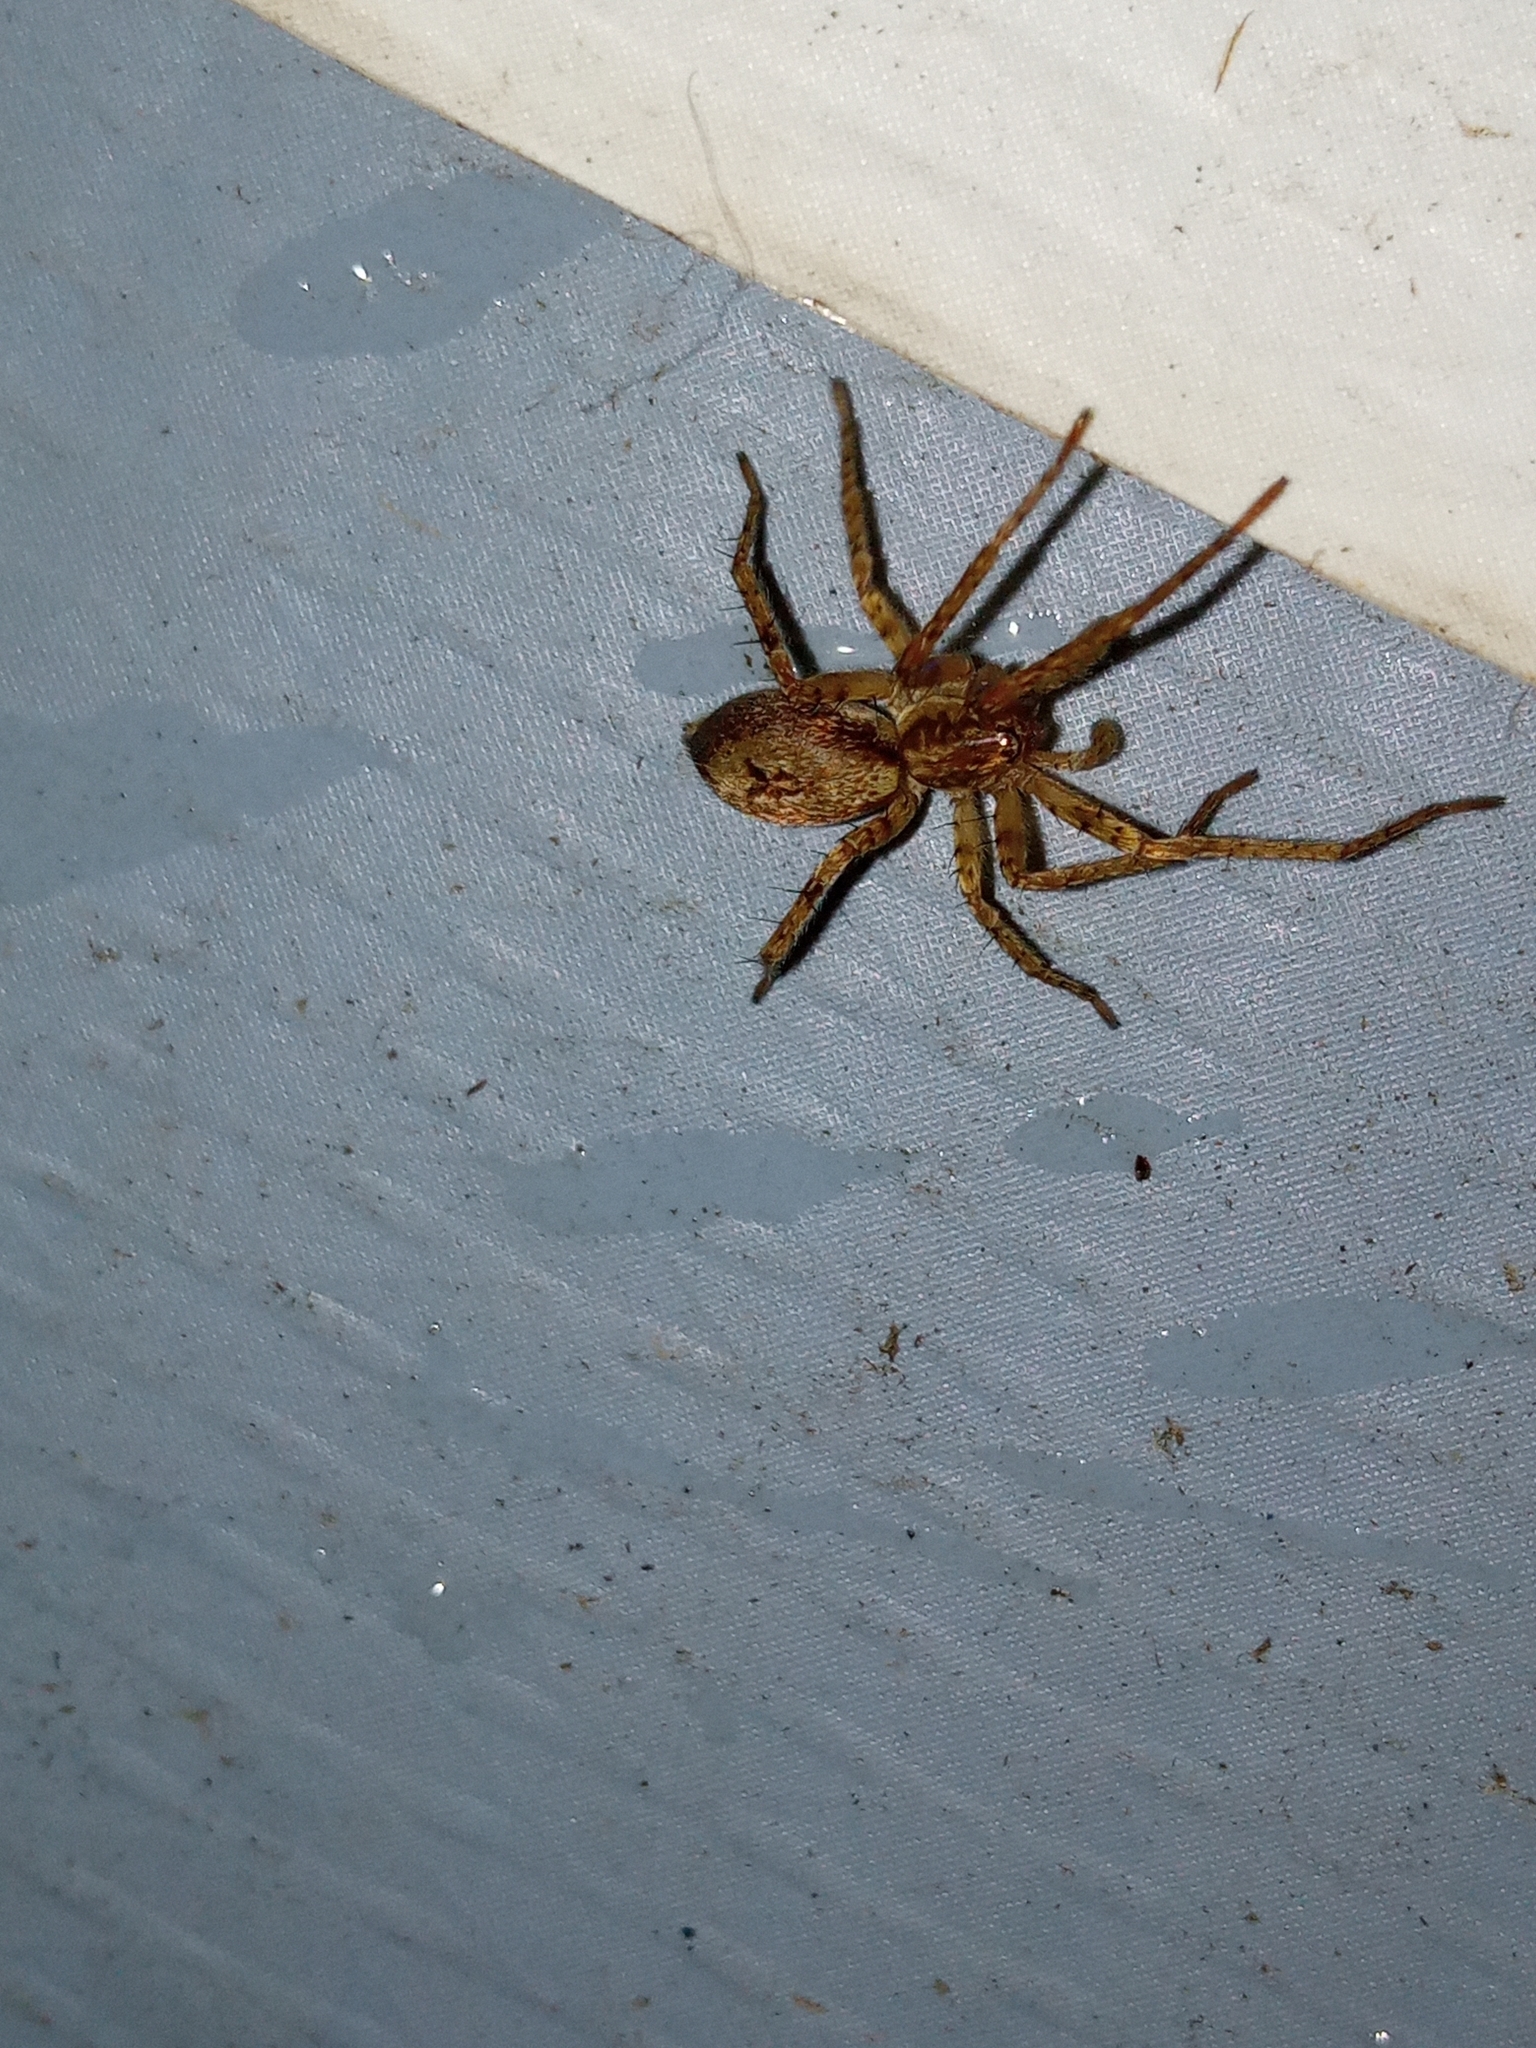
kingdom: Animalia
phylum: Arthropoda
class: Arachnida
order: Araneae
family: Anyphaenidae
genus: Anyphaena
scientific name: Anyphaena accentuata
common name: Buzzing spider
